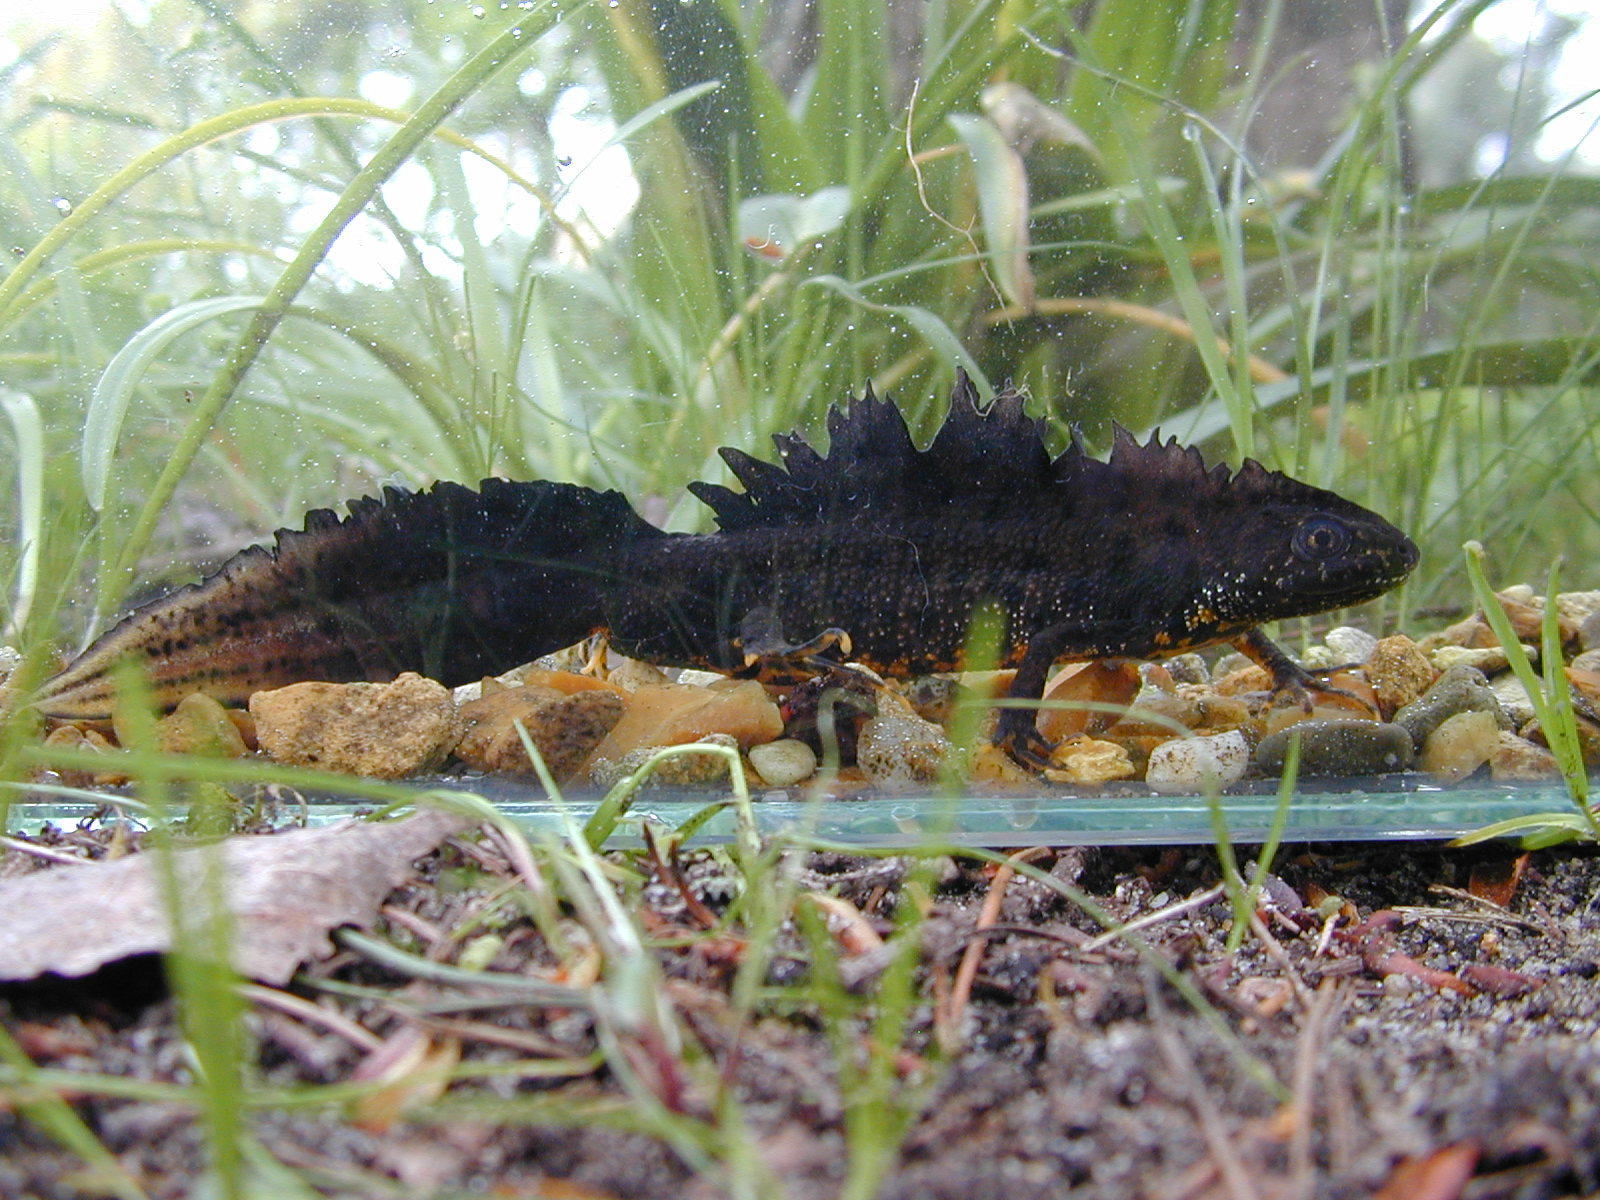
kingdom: Animalia
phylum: Chordata
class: Amphibia
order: Caudata
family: Salamandridae
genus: Triturus
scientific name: Triturus cristatus
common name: Crested newt
